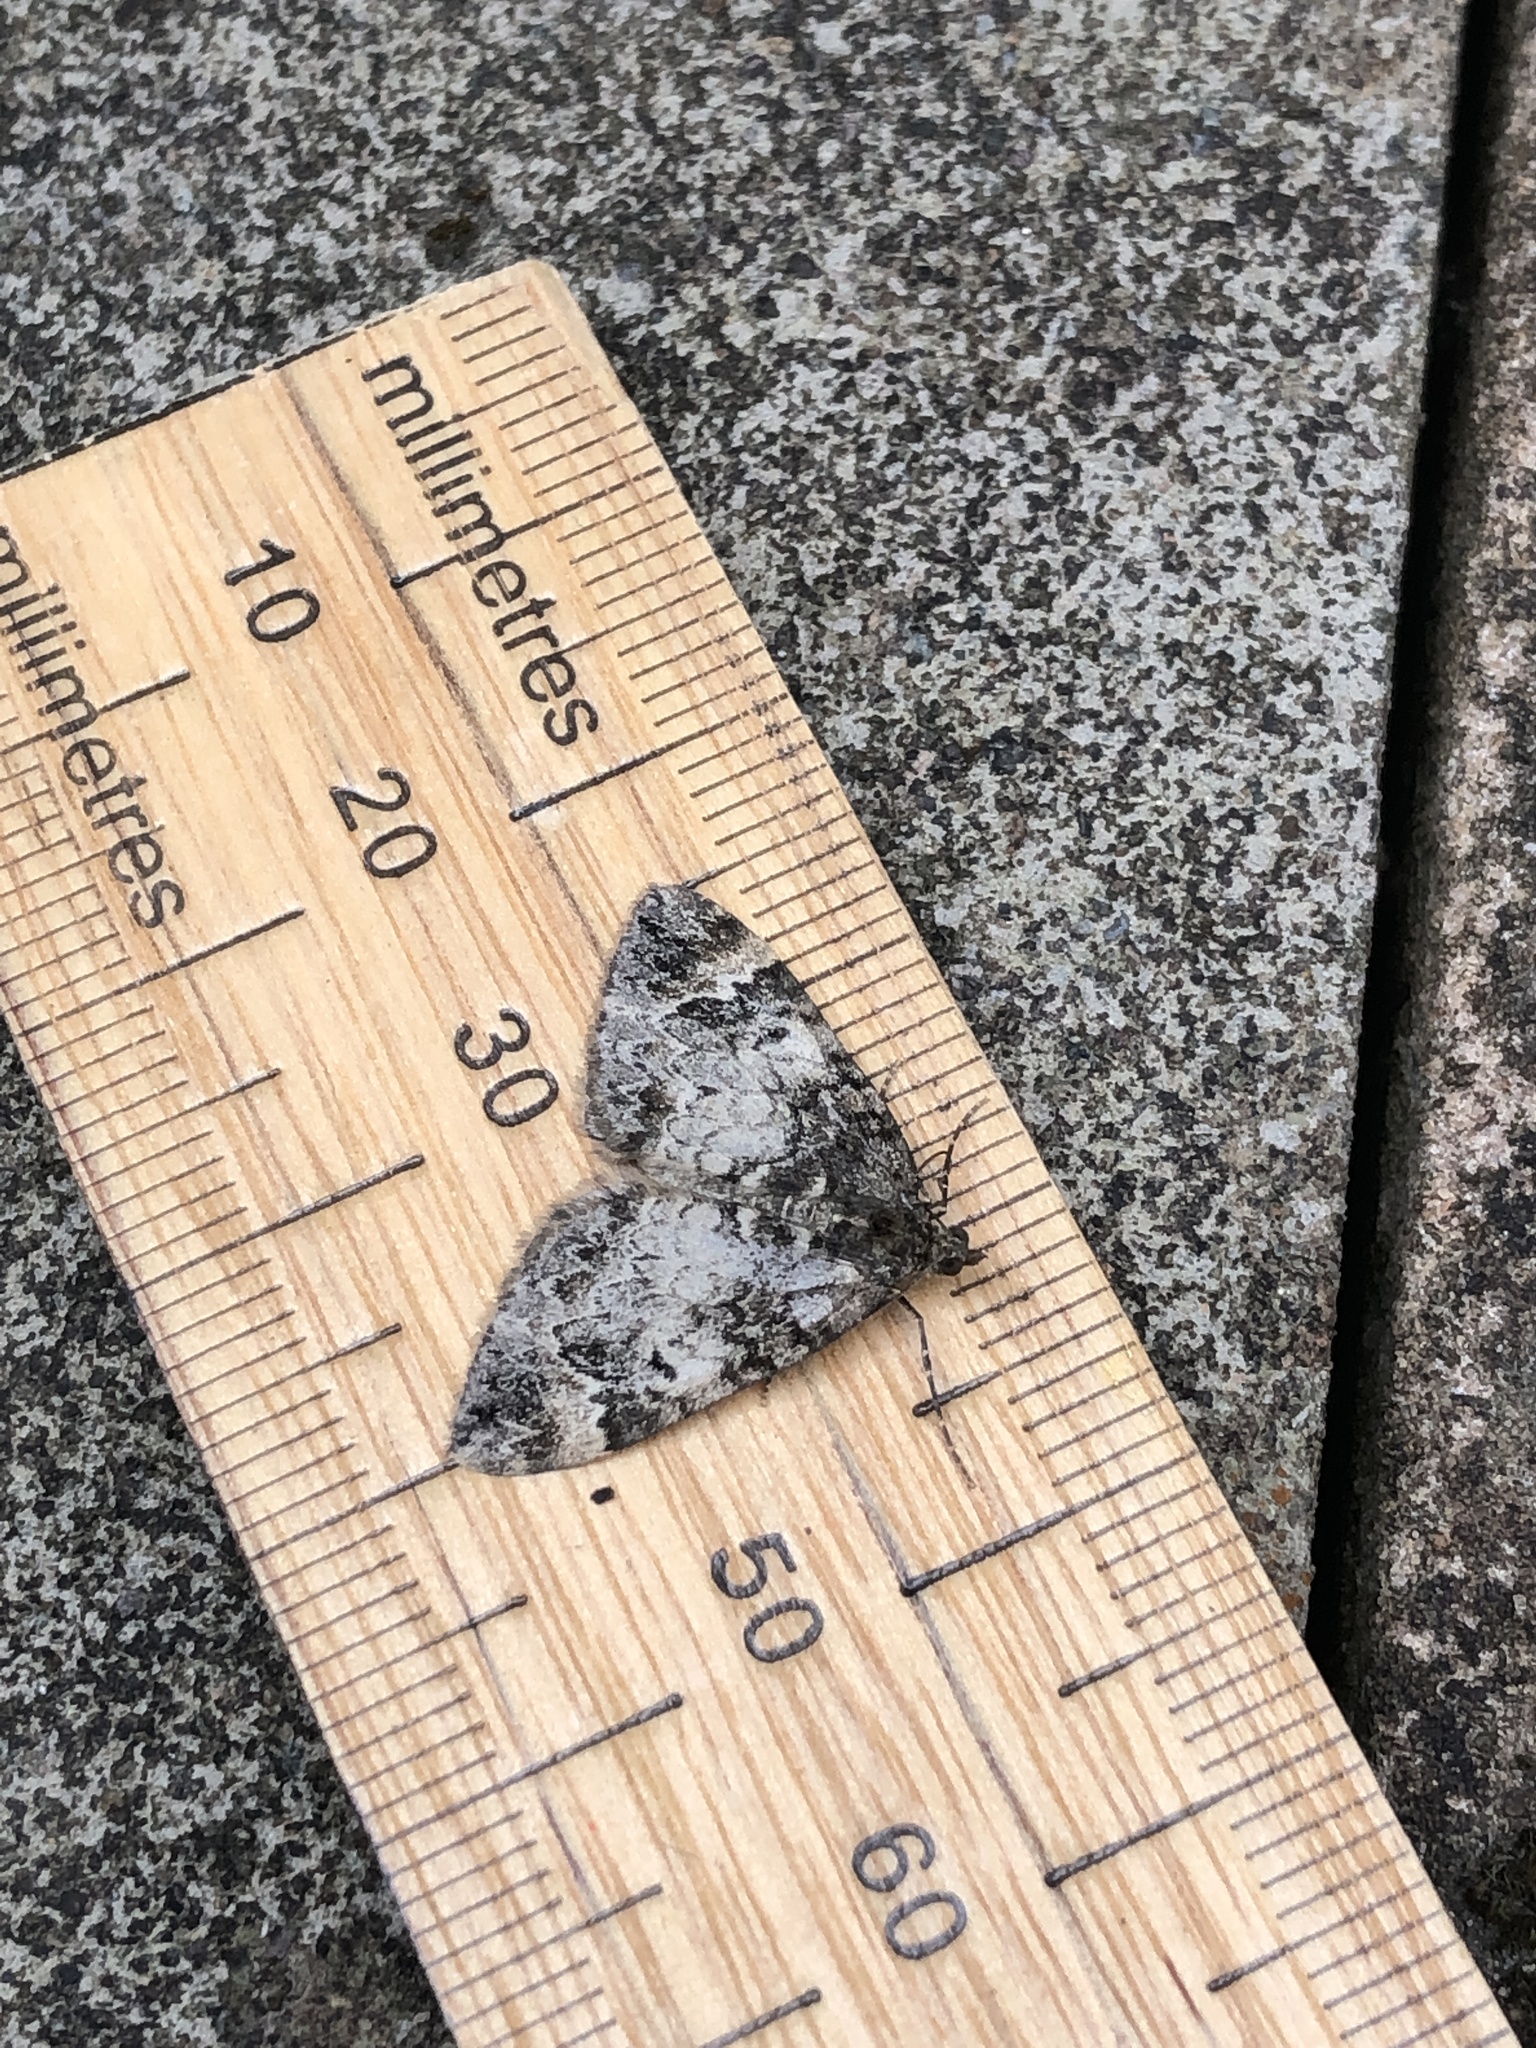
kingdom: Animalia
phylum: Arthropoda
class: Insecta
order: Lepidoptera
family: Geometridae
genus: Dysstroma
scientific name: Dysstroma truncata
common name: Common marbled carpet
